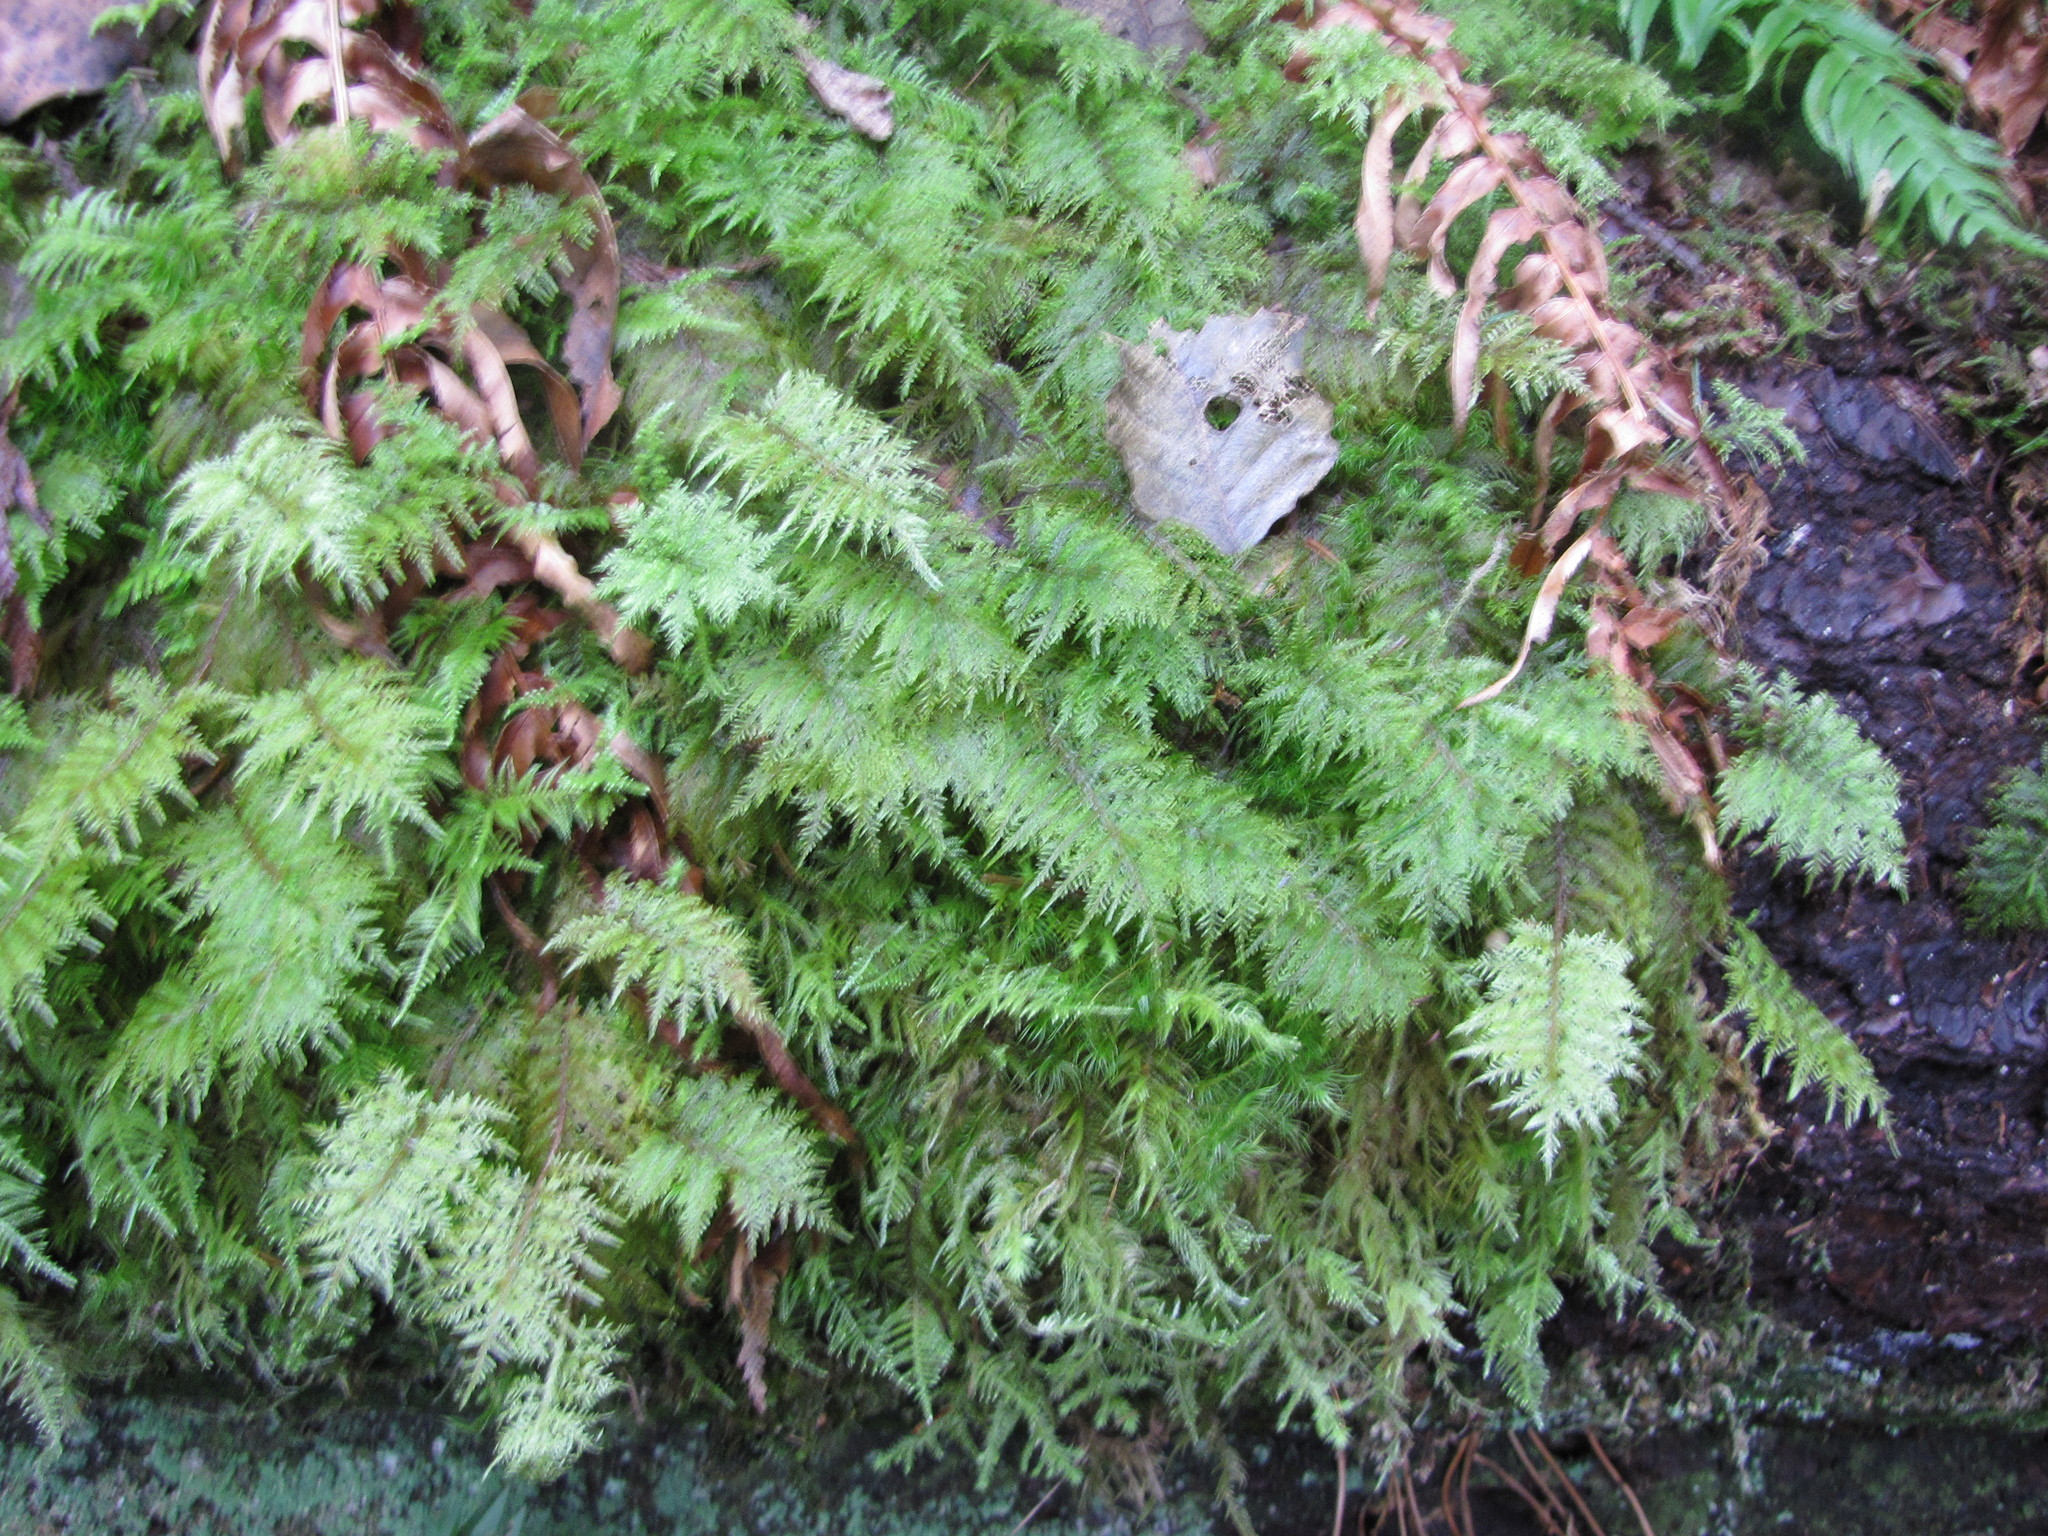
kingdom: Plantae
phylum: Bryophyta
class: Bryopsida
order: Hypnales
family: Hylocomiaceae
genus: Hylocomium
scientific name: Hylocomium splendens
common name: Stairstep moss
